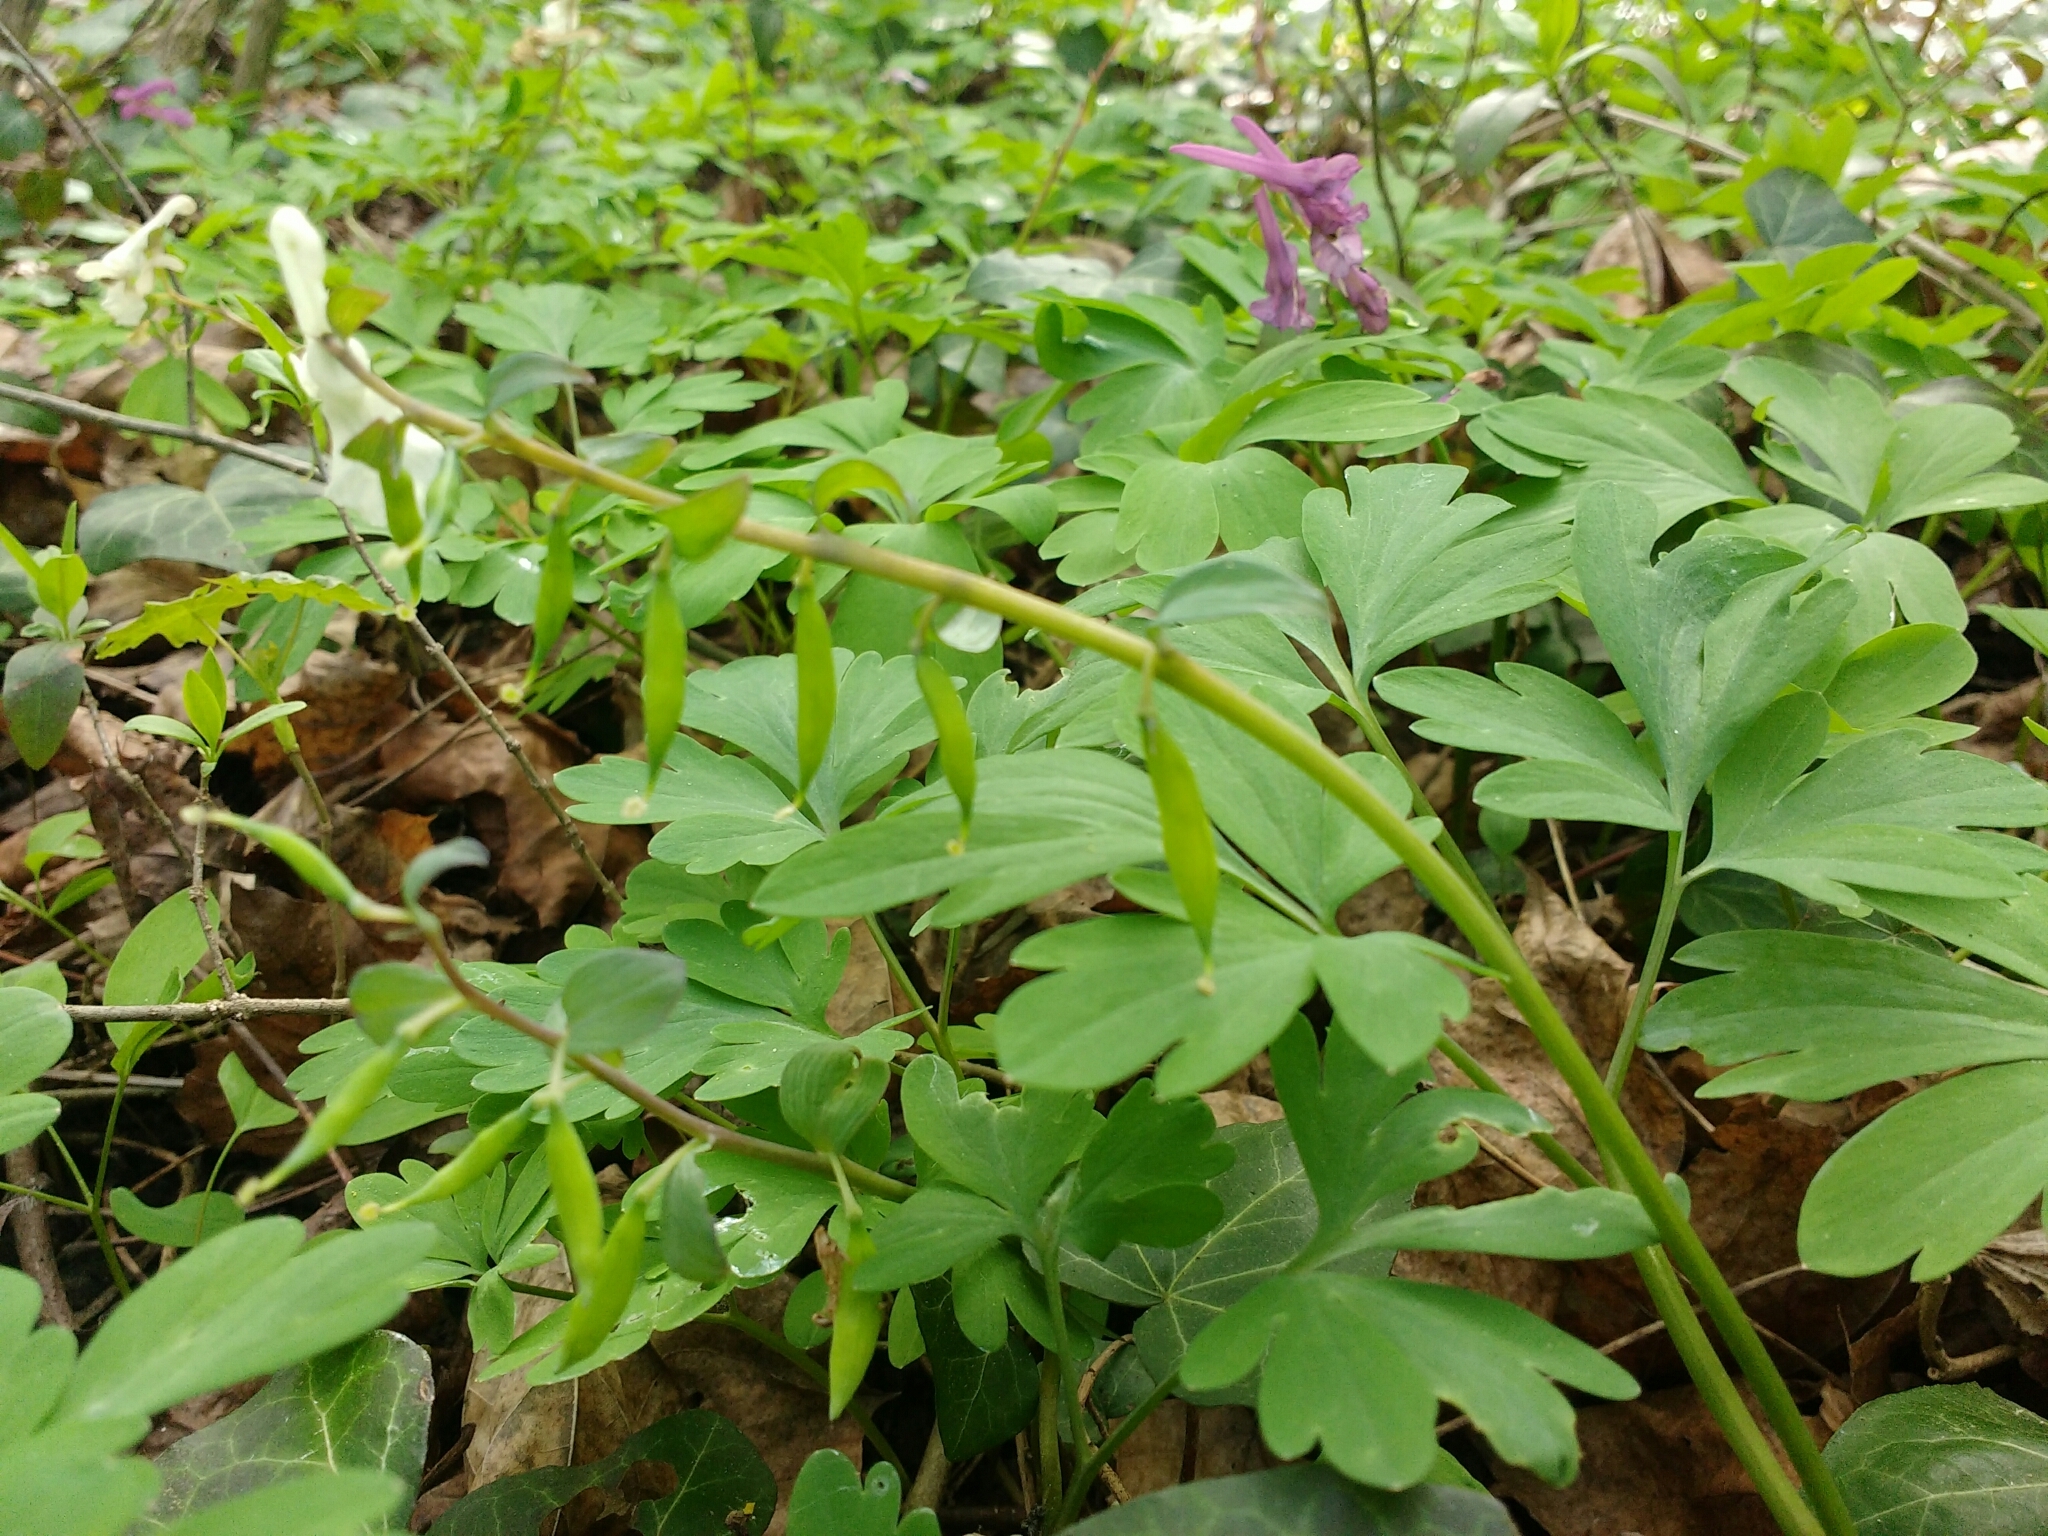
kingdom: Plantae
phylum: Tracheophyta
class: Magnoliopsida
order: Ranunculales
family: Papaveraceae
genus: Corydalis
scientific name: Corydalis cava
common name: Hollowroot
